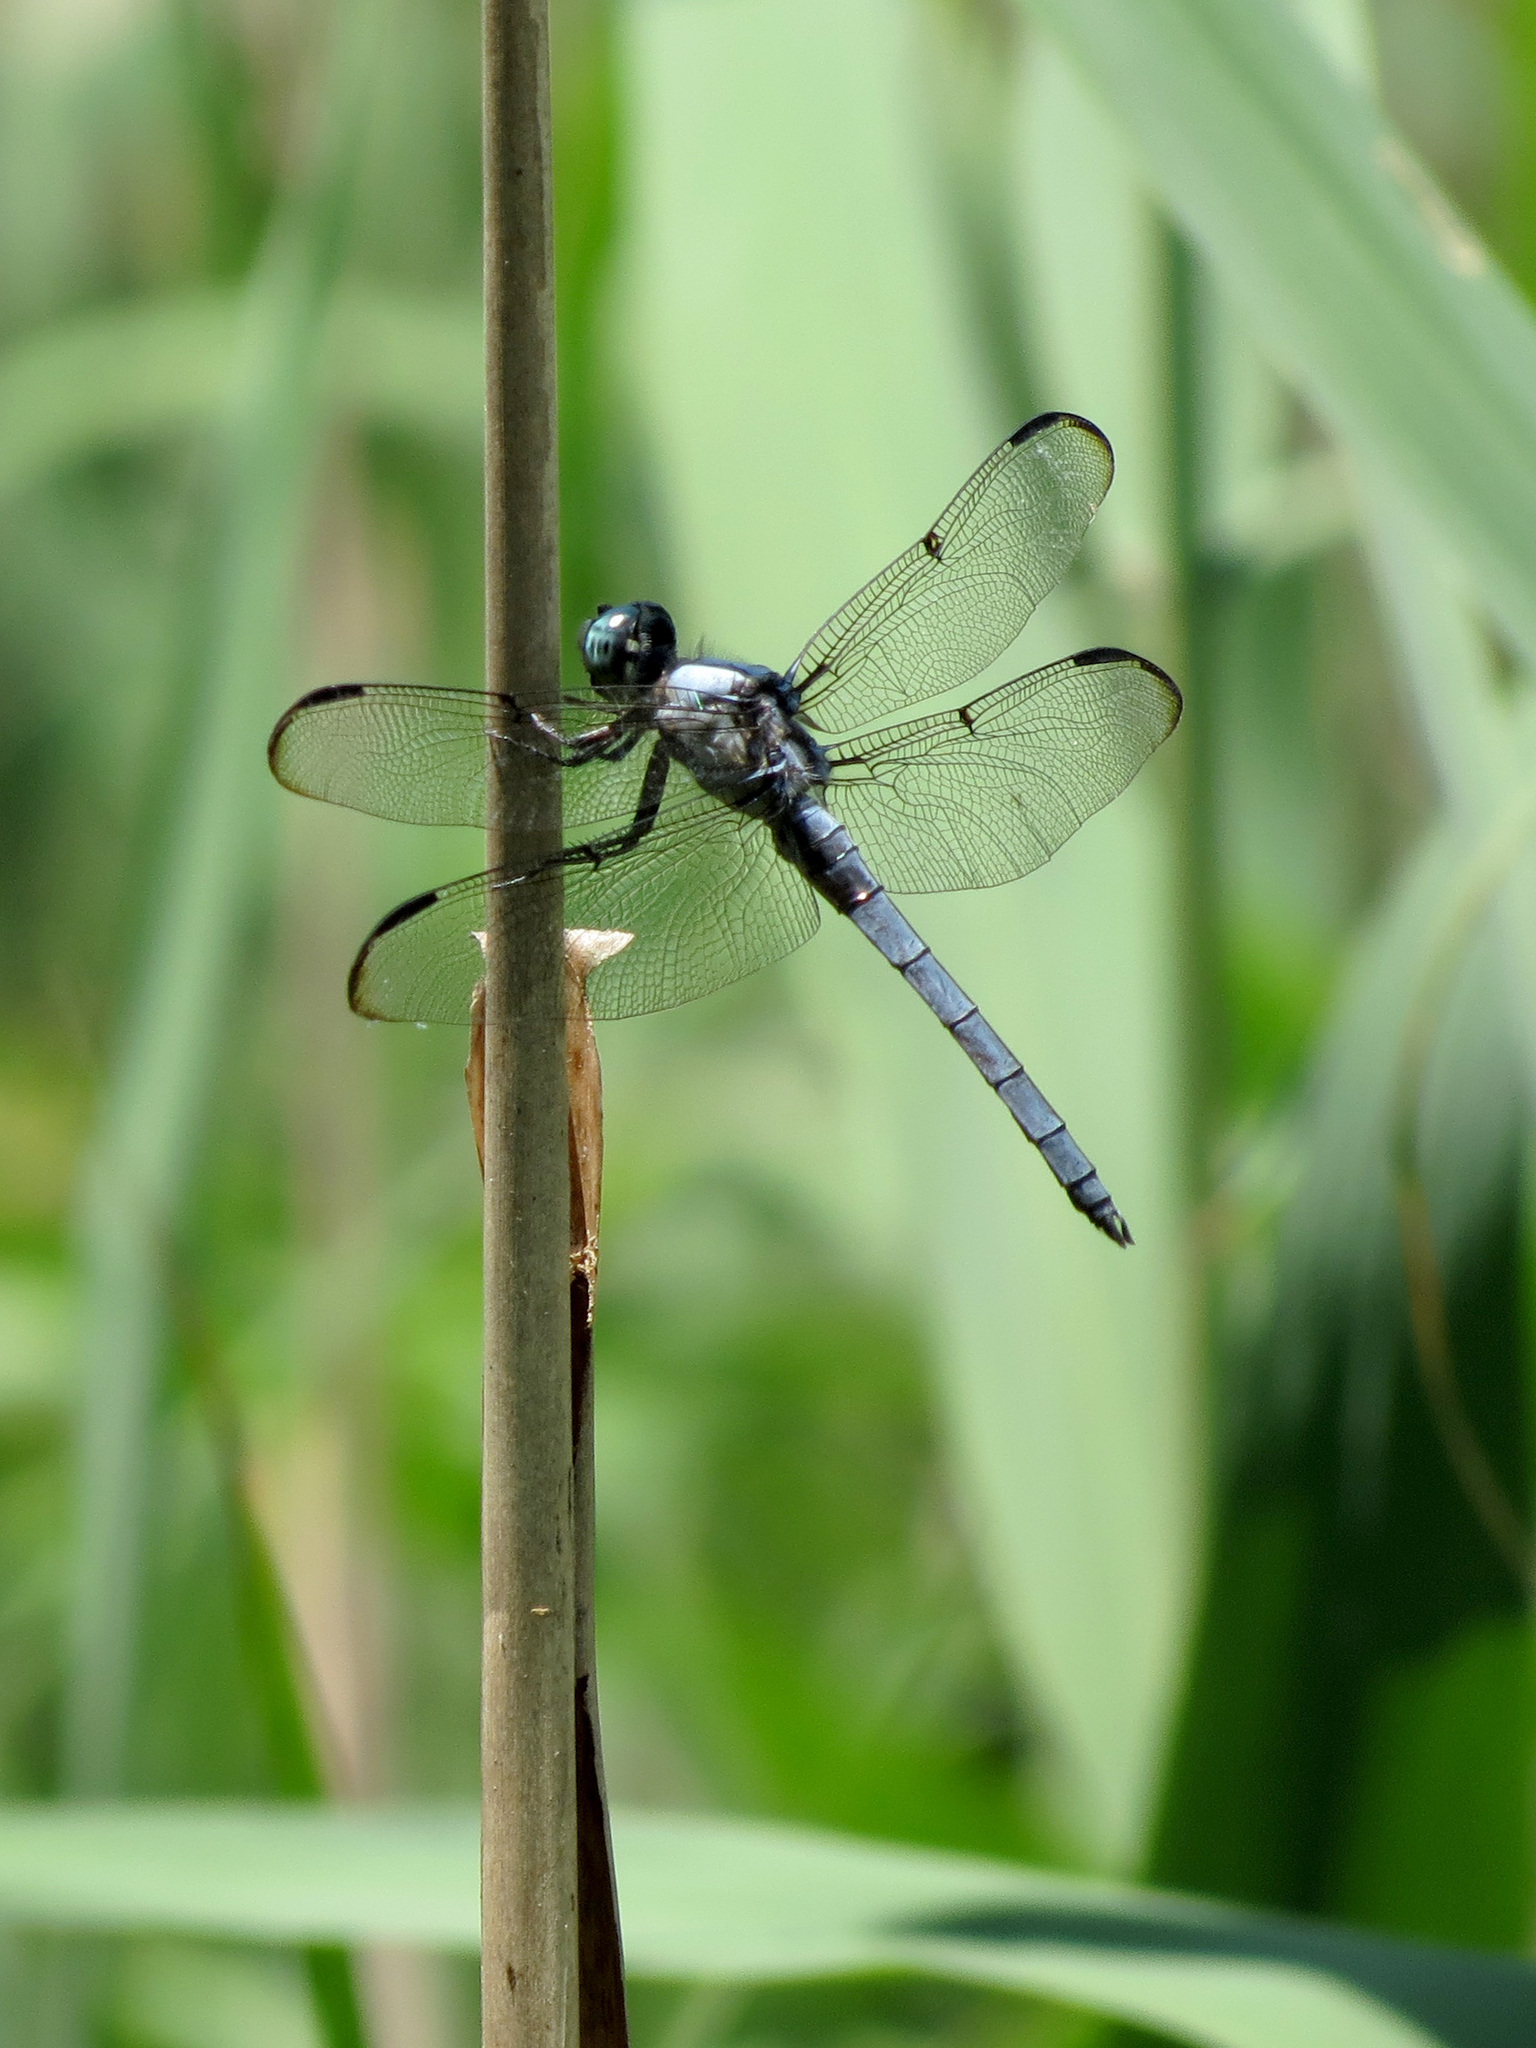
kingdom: Animalia
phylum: Arthropoda
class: Insecta
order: Odonata
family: Libellulidae
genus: Libellula
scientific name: Libellula vibrans
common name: Great blue skimmer
